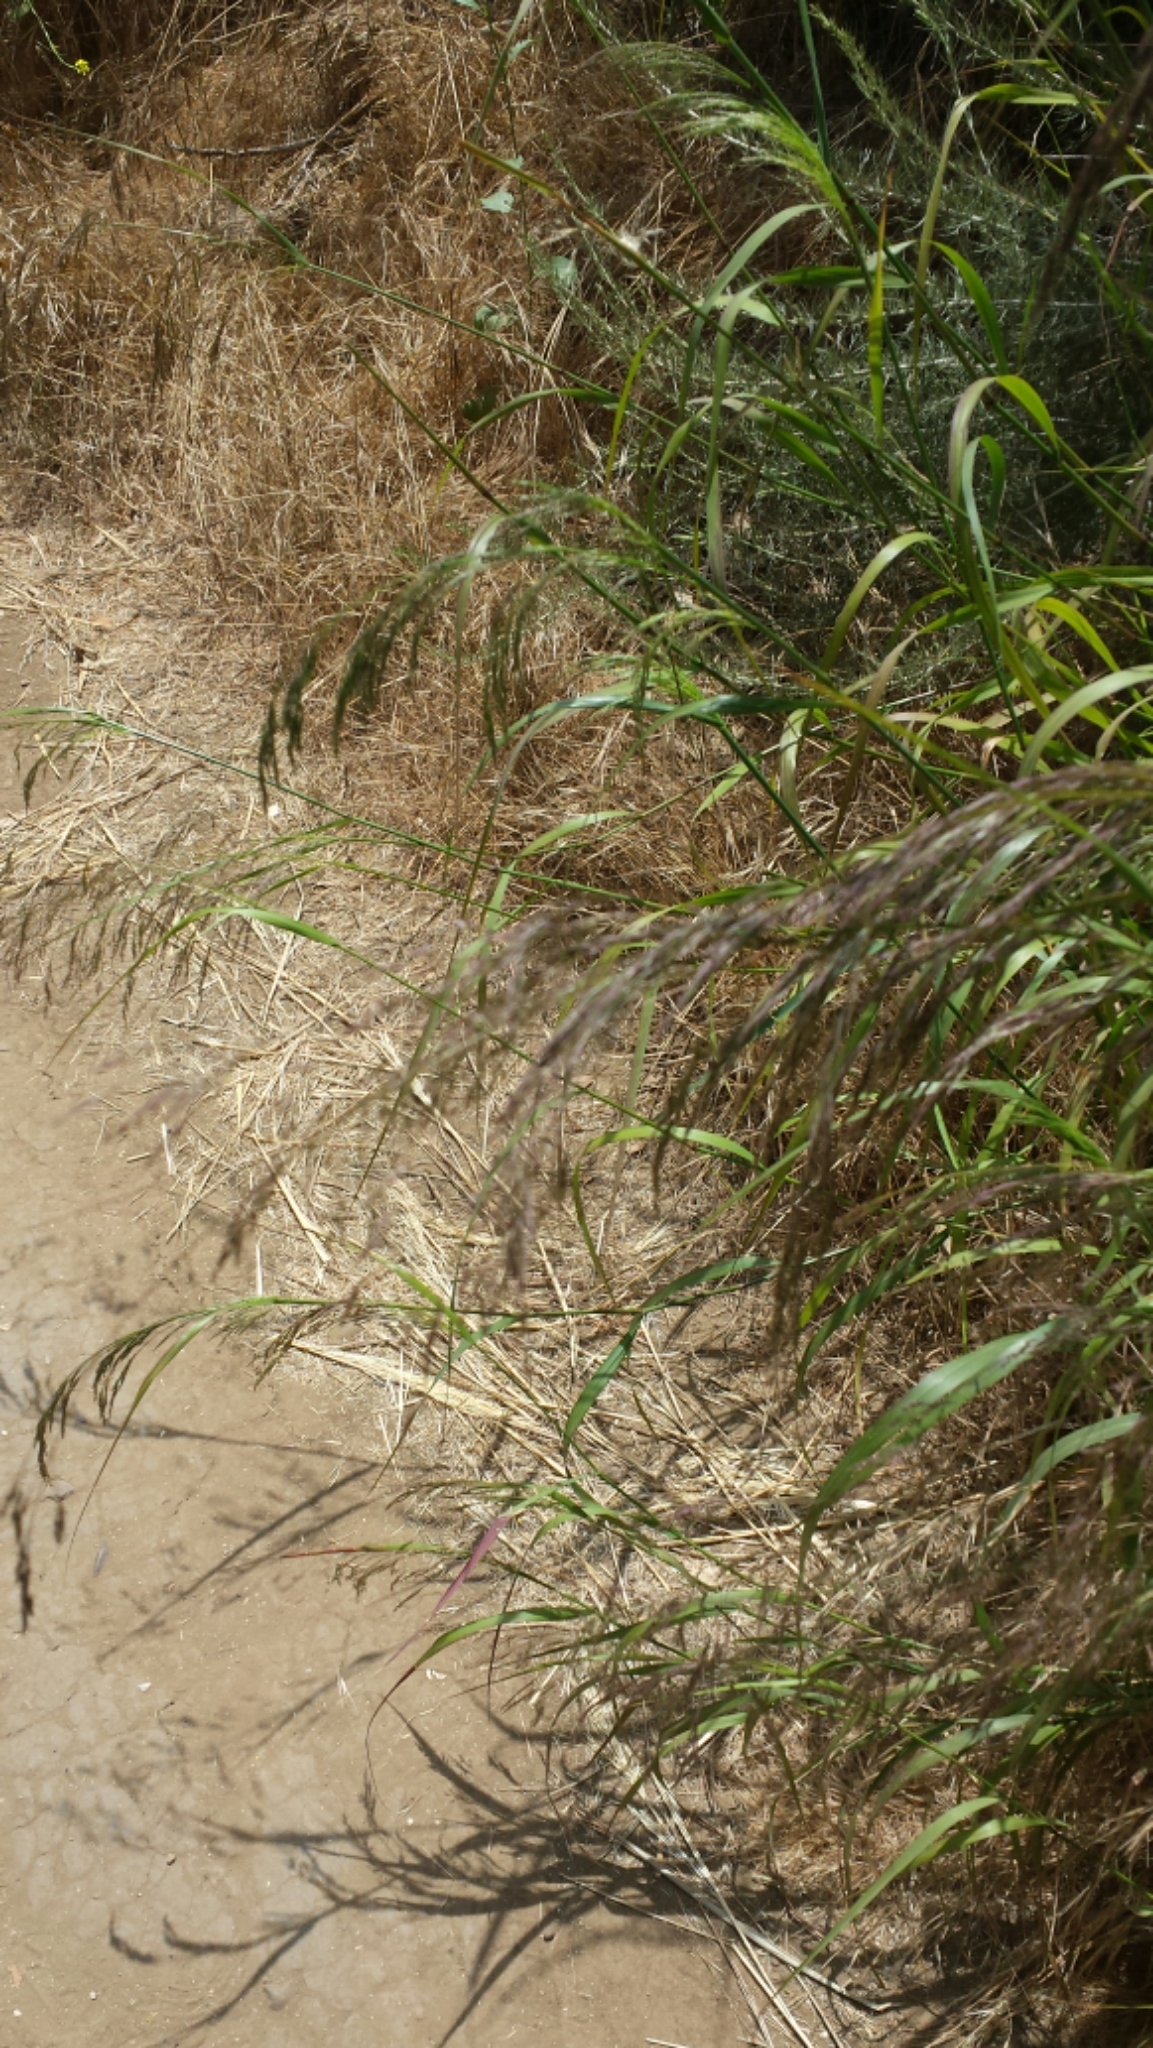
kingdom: Plantae
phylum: Tracheophyta
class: Liliopsida
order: Poales
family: Poaceae
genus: Oloptum
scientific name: Oloptum miliaceum
